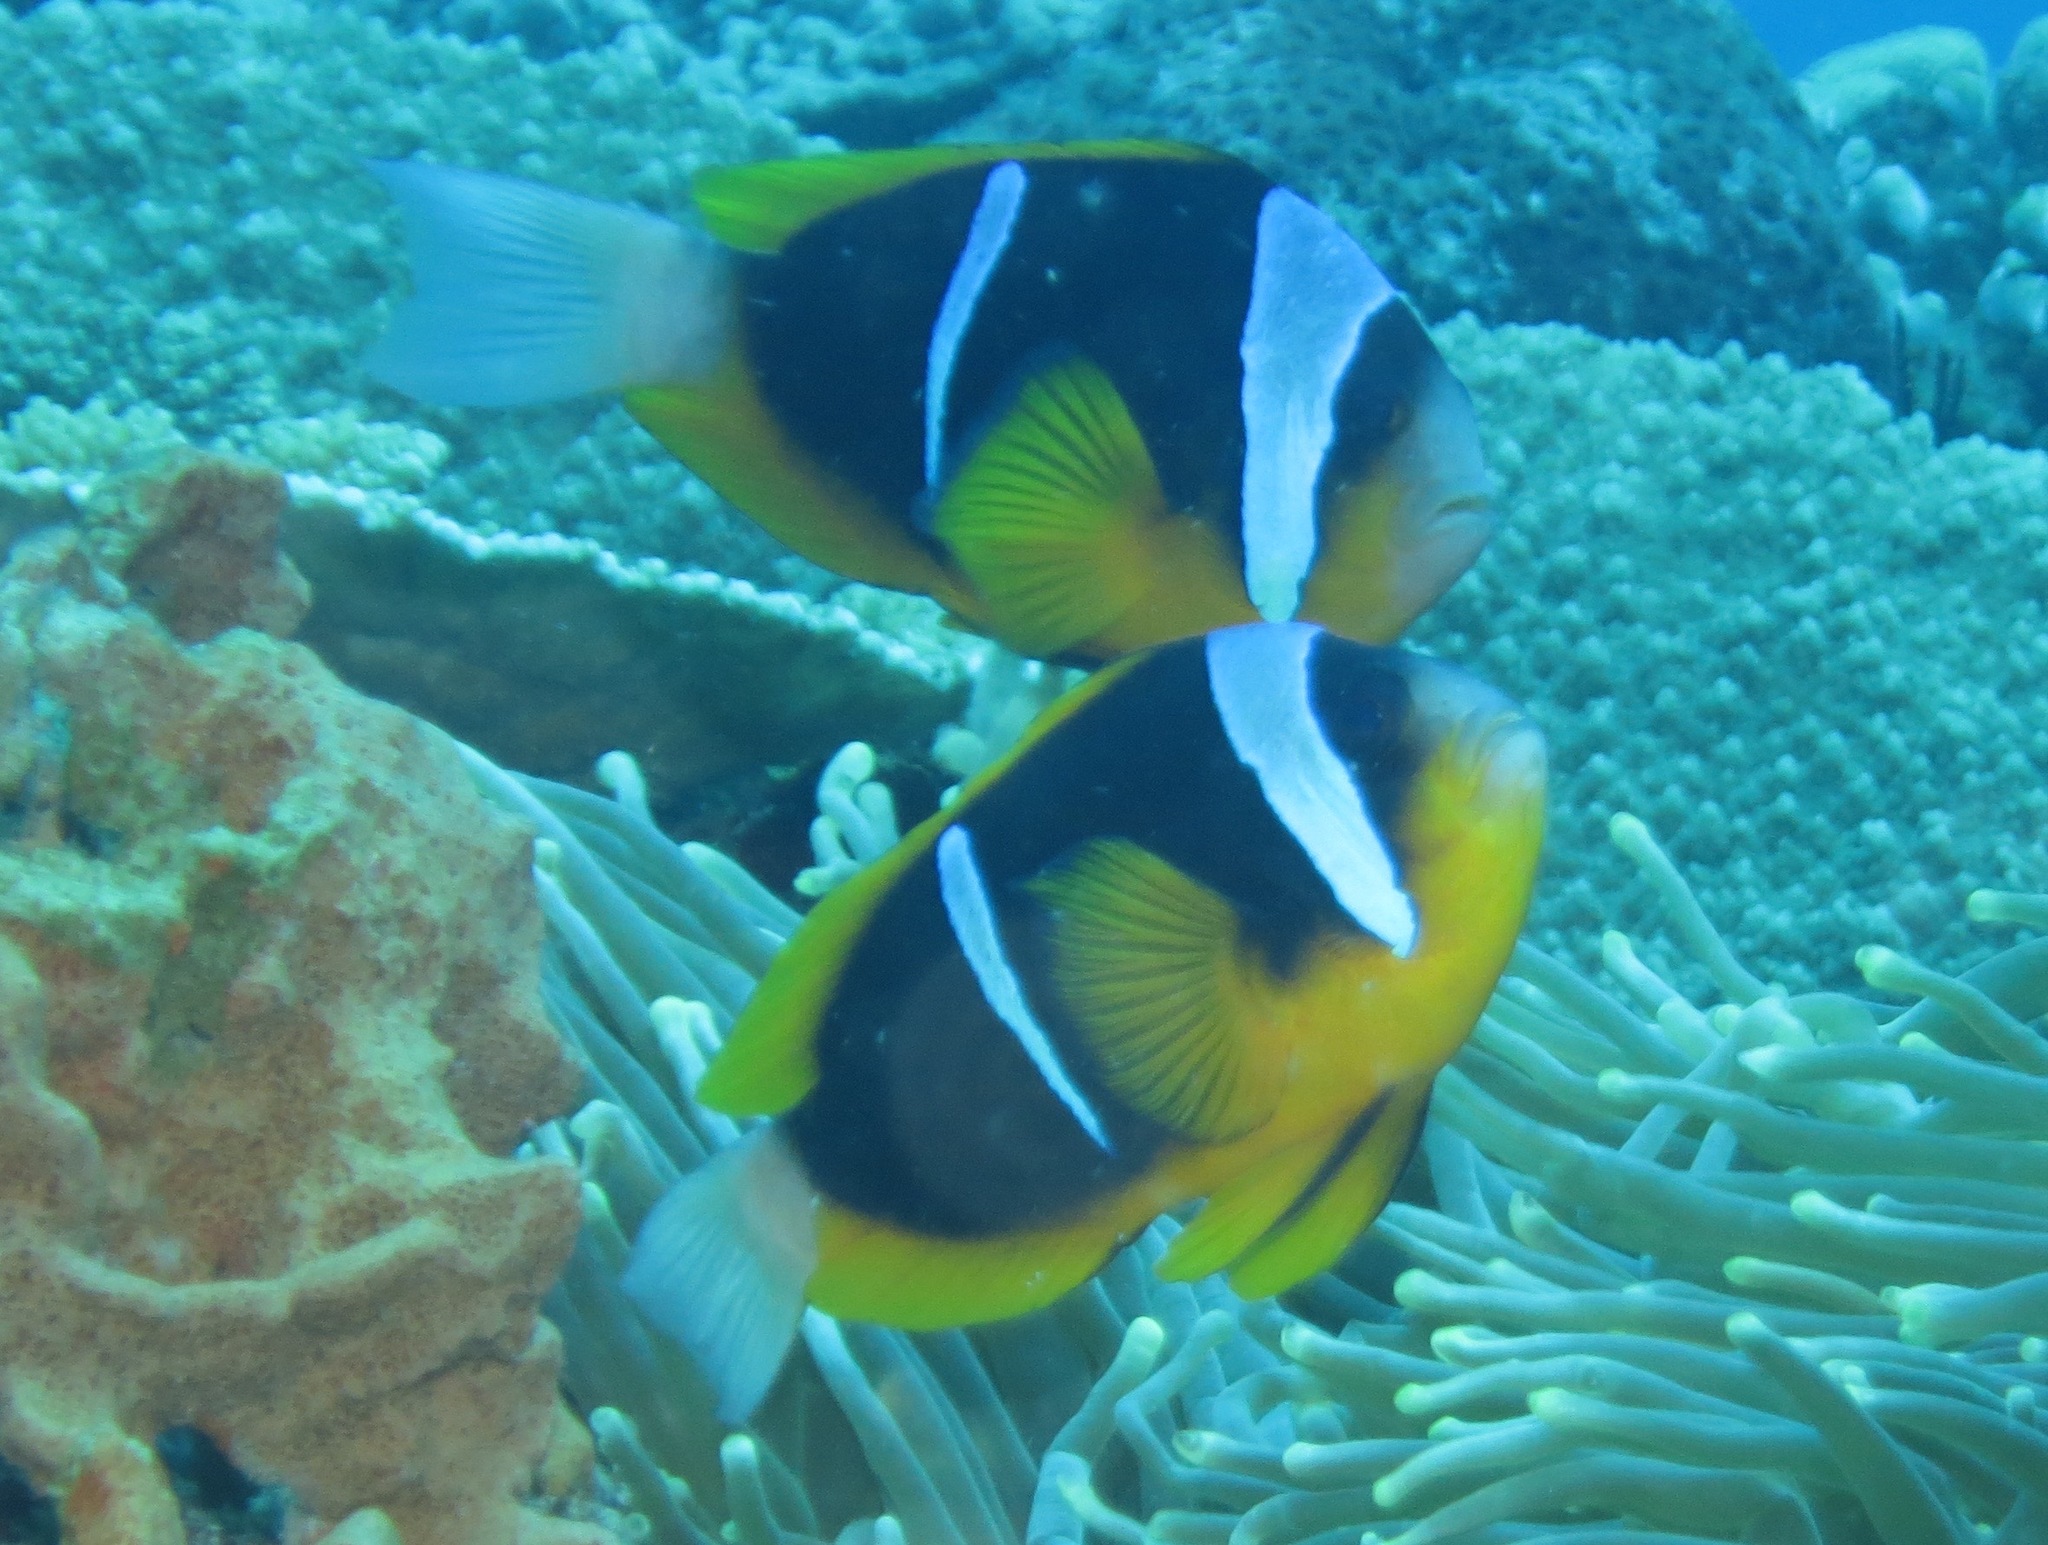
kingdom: Animalia
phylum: Chordata
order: Perciformes
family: Pomacentridae
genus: Amphiprion
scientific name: Amphiprion allardi
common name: Allard's anemonefish
